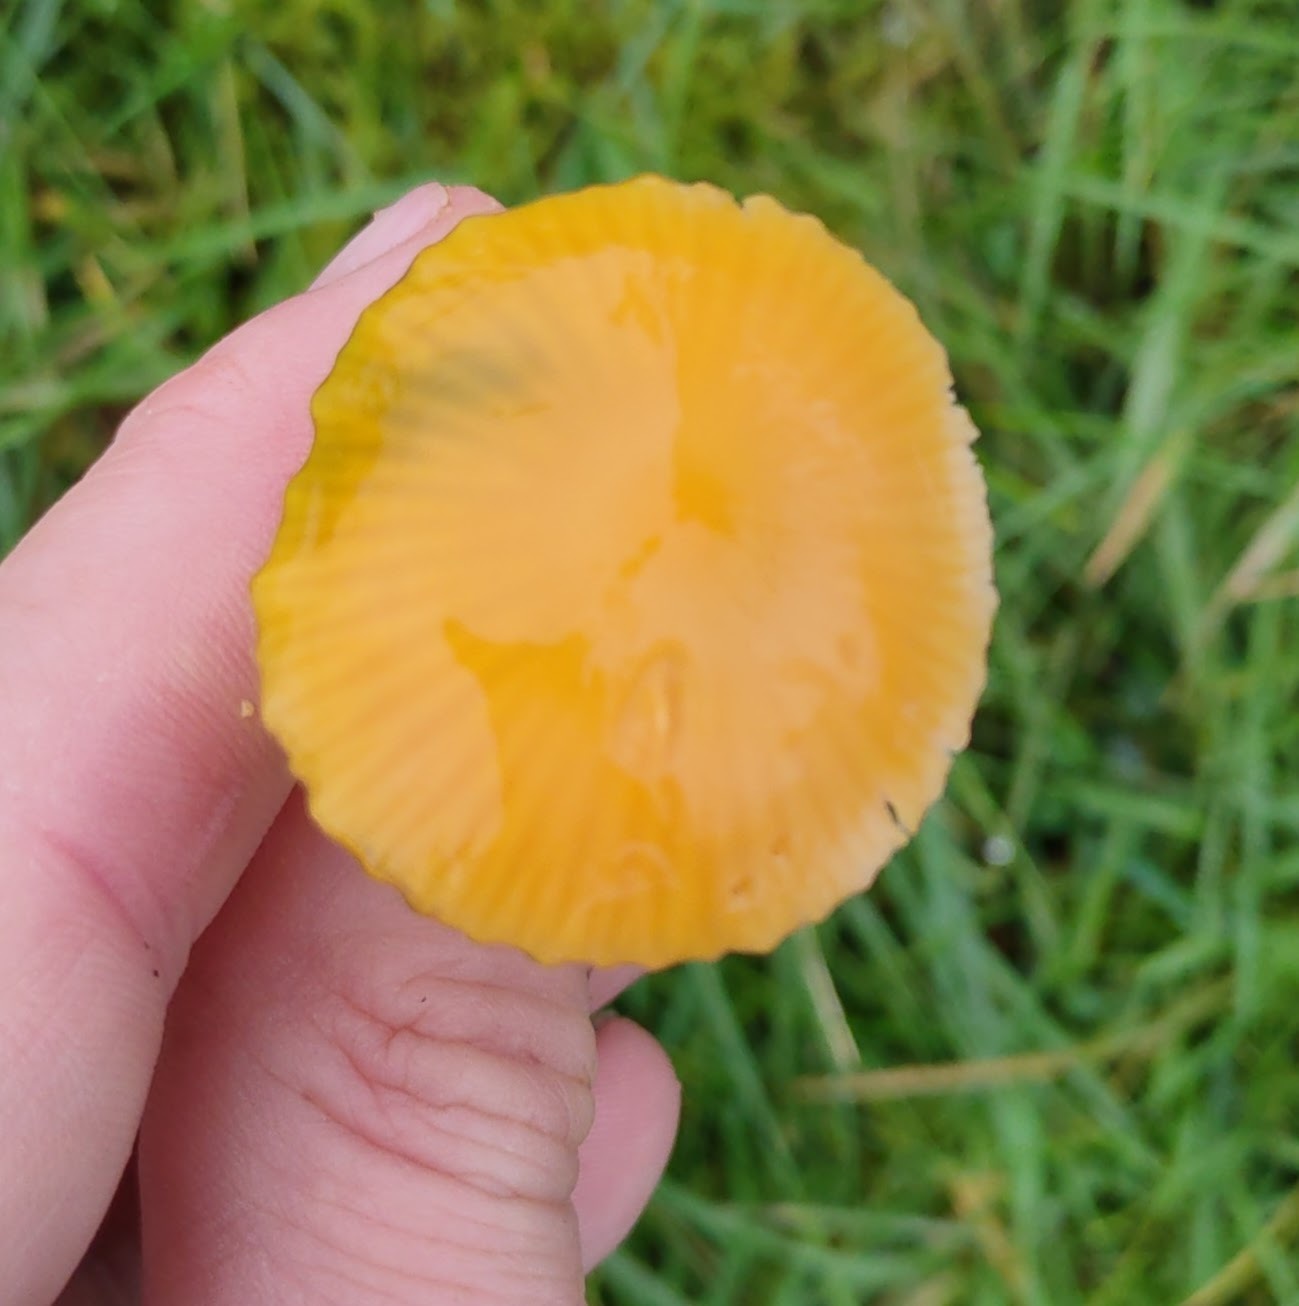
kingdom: Fungi
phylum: Basidiomycota
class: Agaricomycetes
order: Agaricales
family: Hygrophoraceae
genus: Gliophorus
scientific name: Gliophorus psittacinus
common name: Parrot wax-cap
